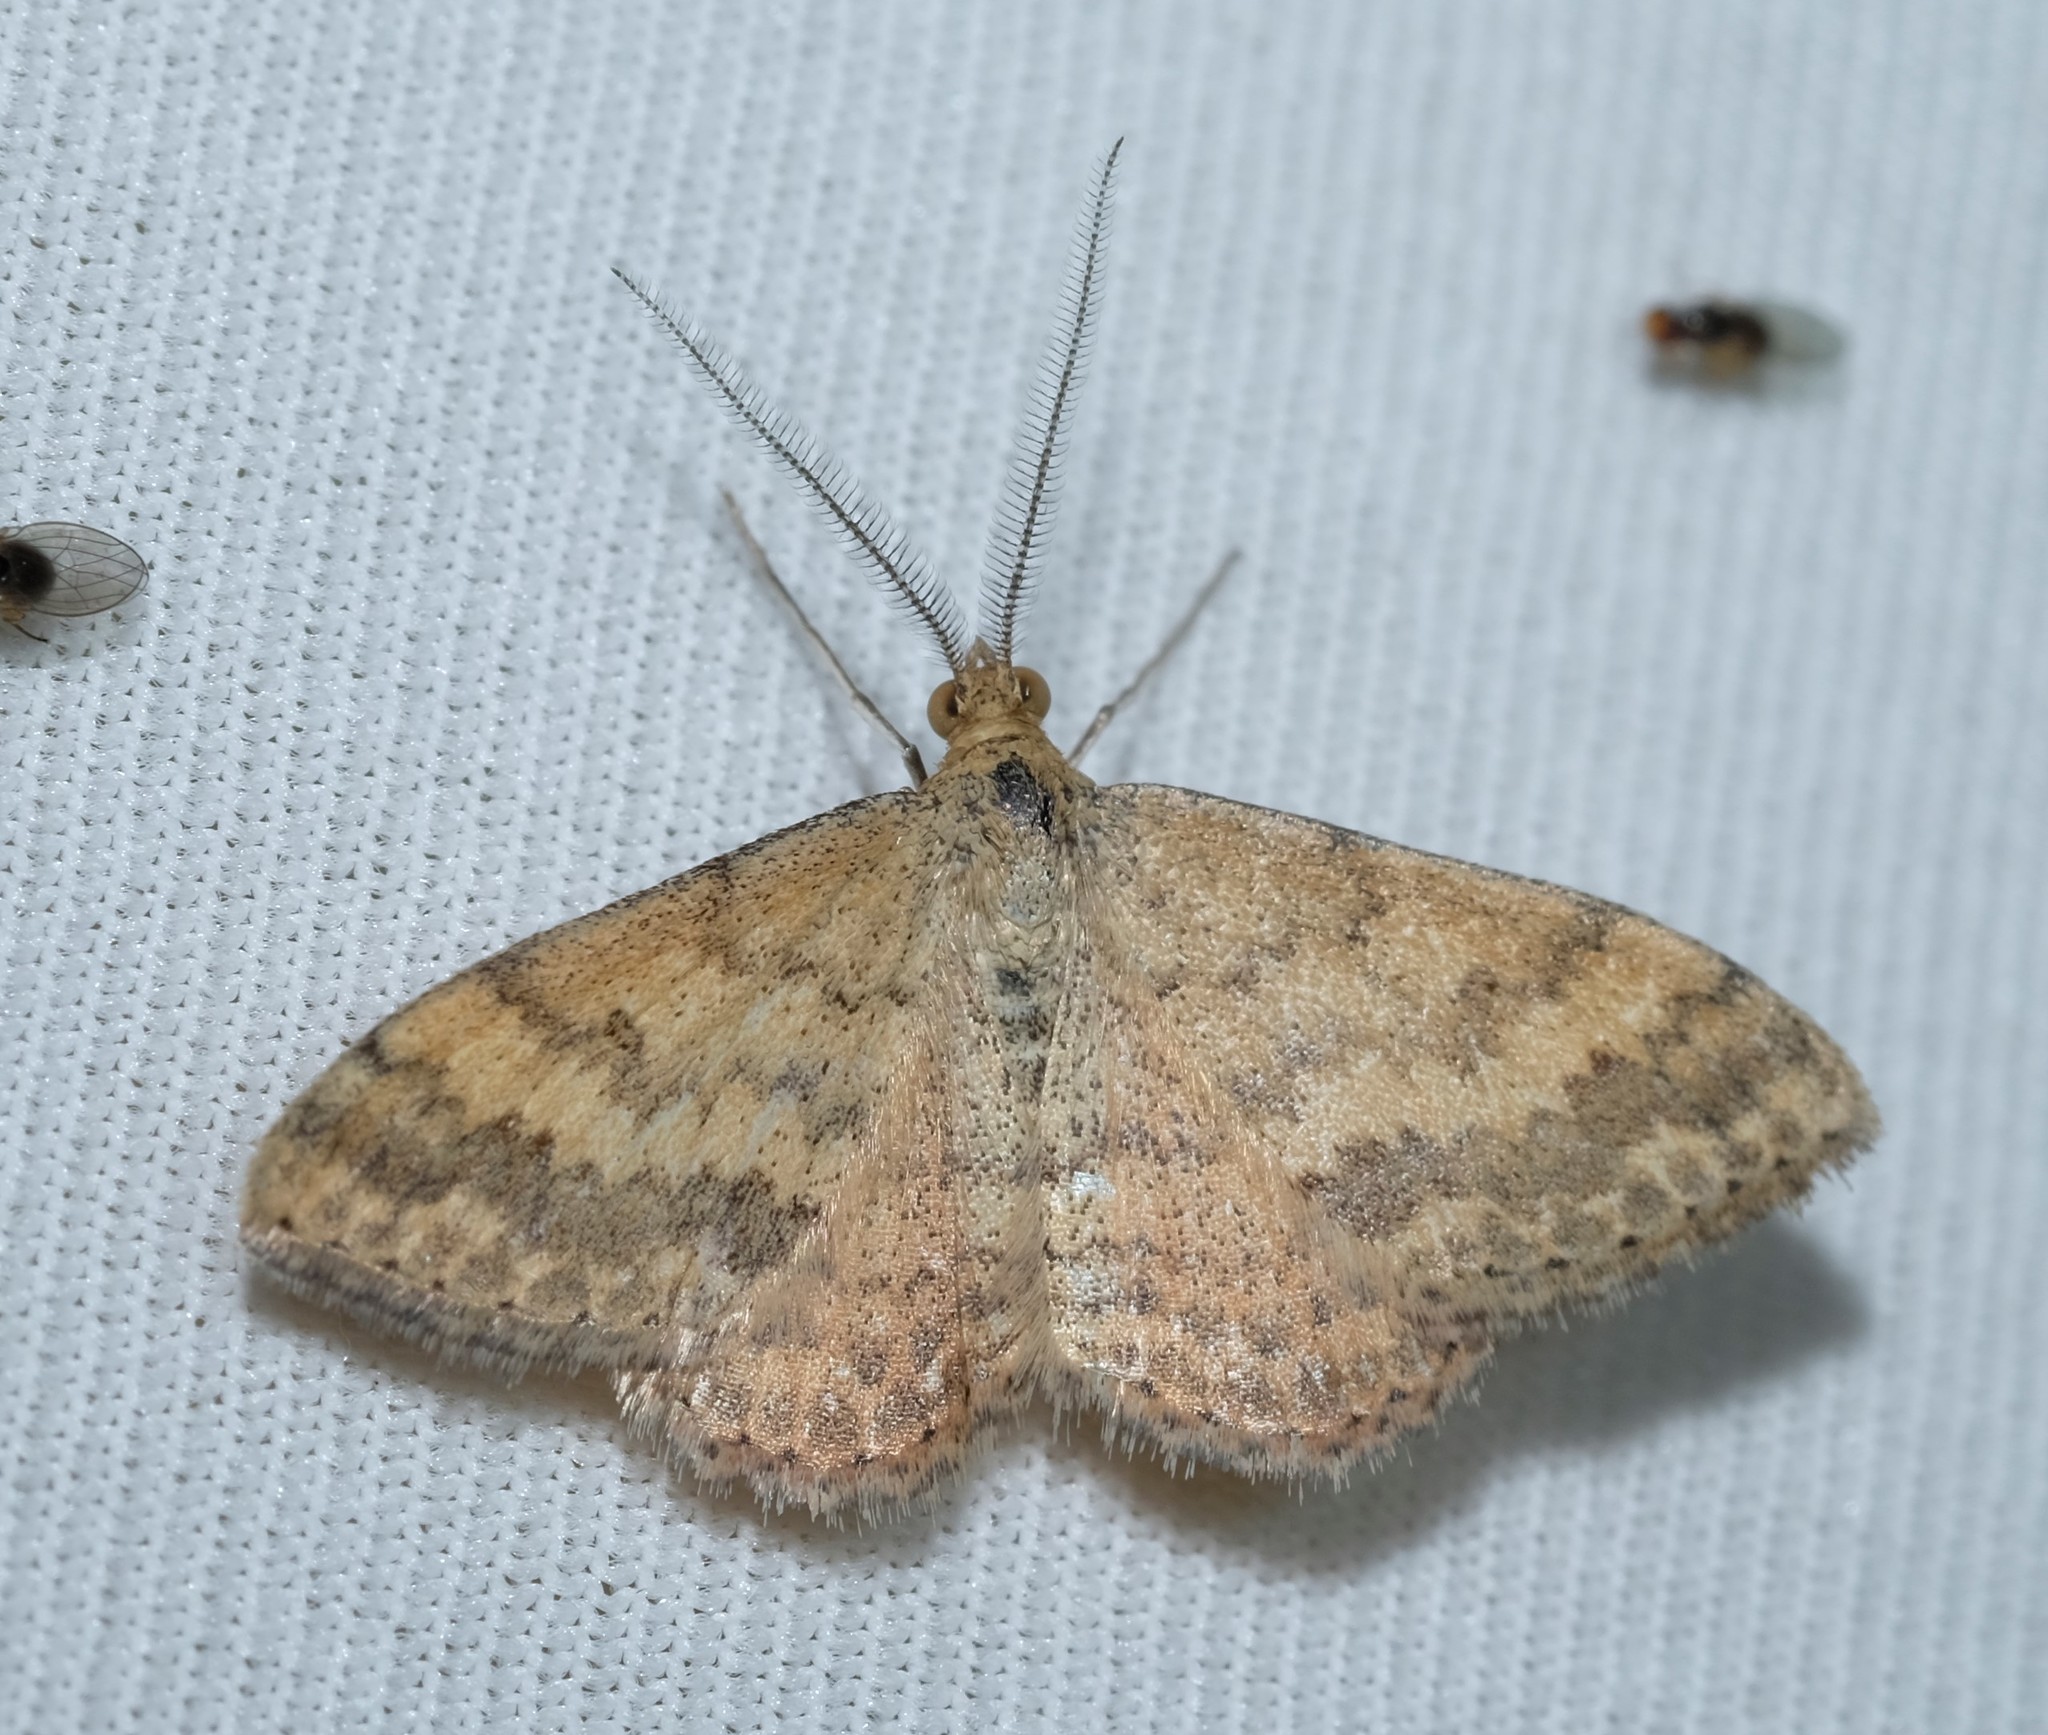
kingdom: Animalia
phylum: Arthropoda
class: Insecta
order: Lepidoptera
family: Geometridae
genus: Scopula
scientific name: Scopula rubraria
